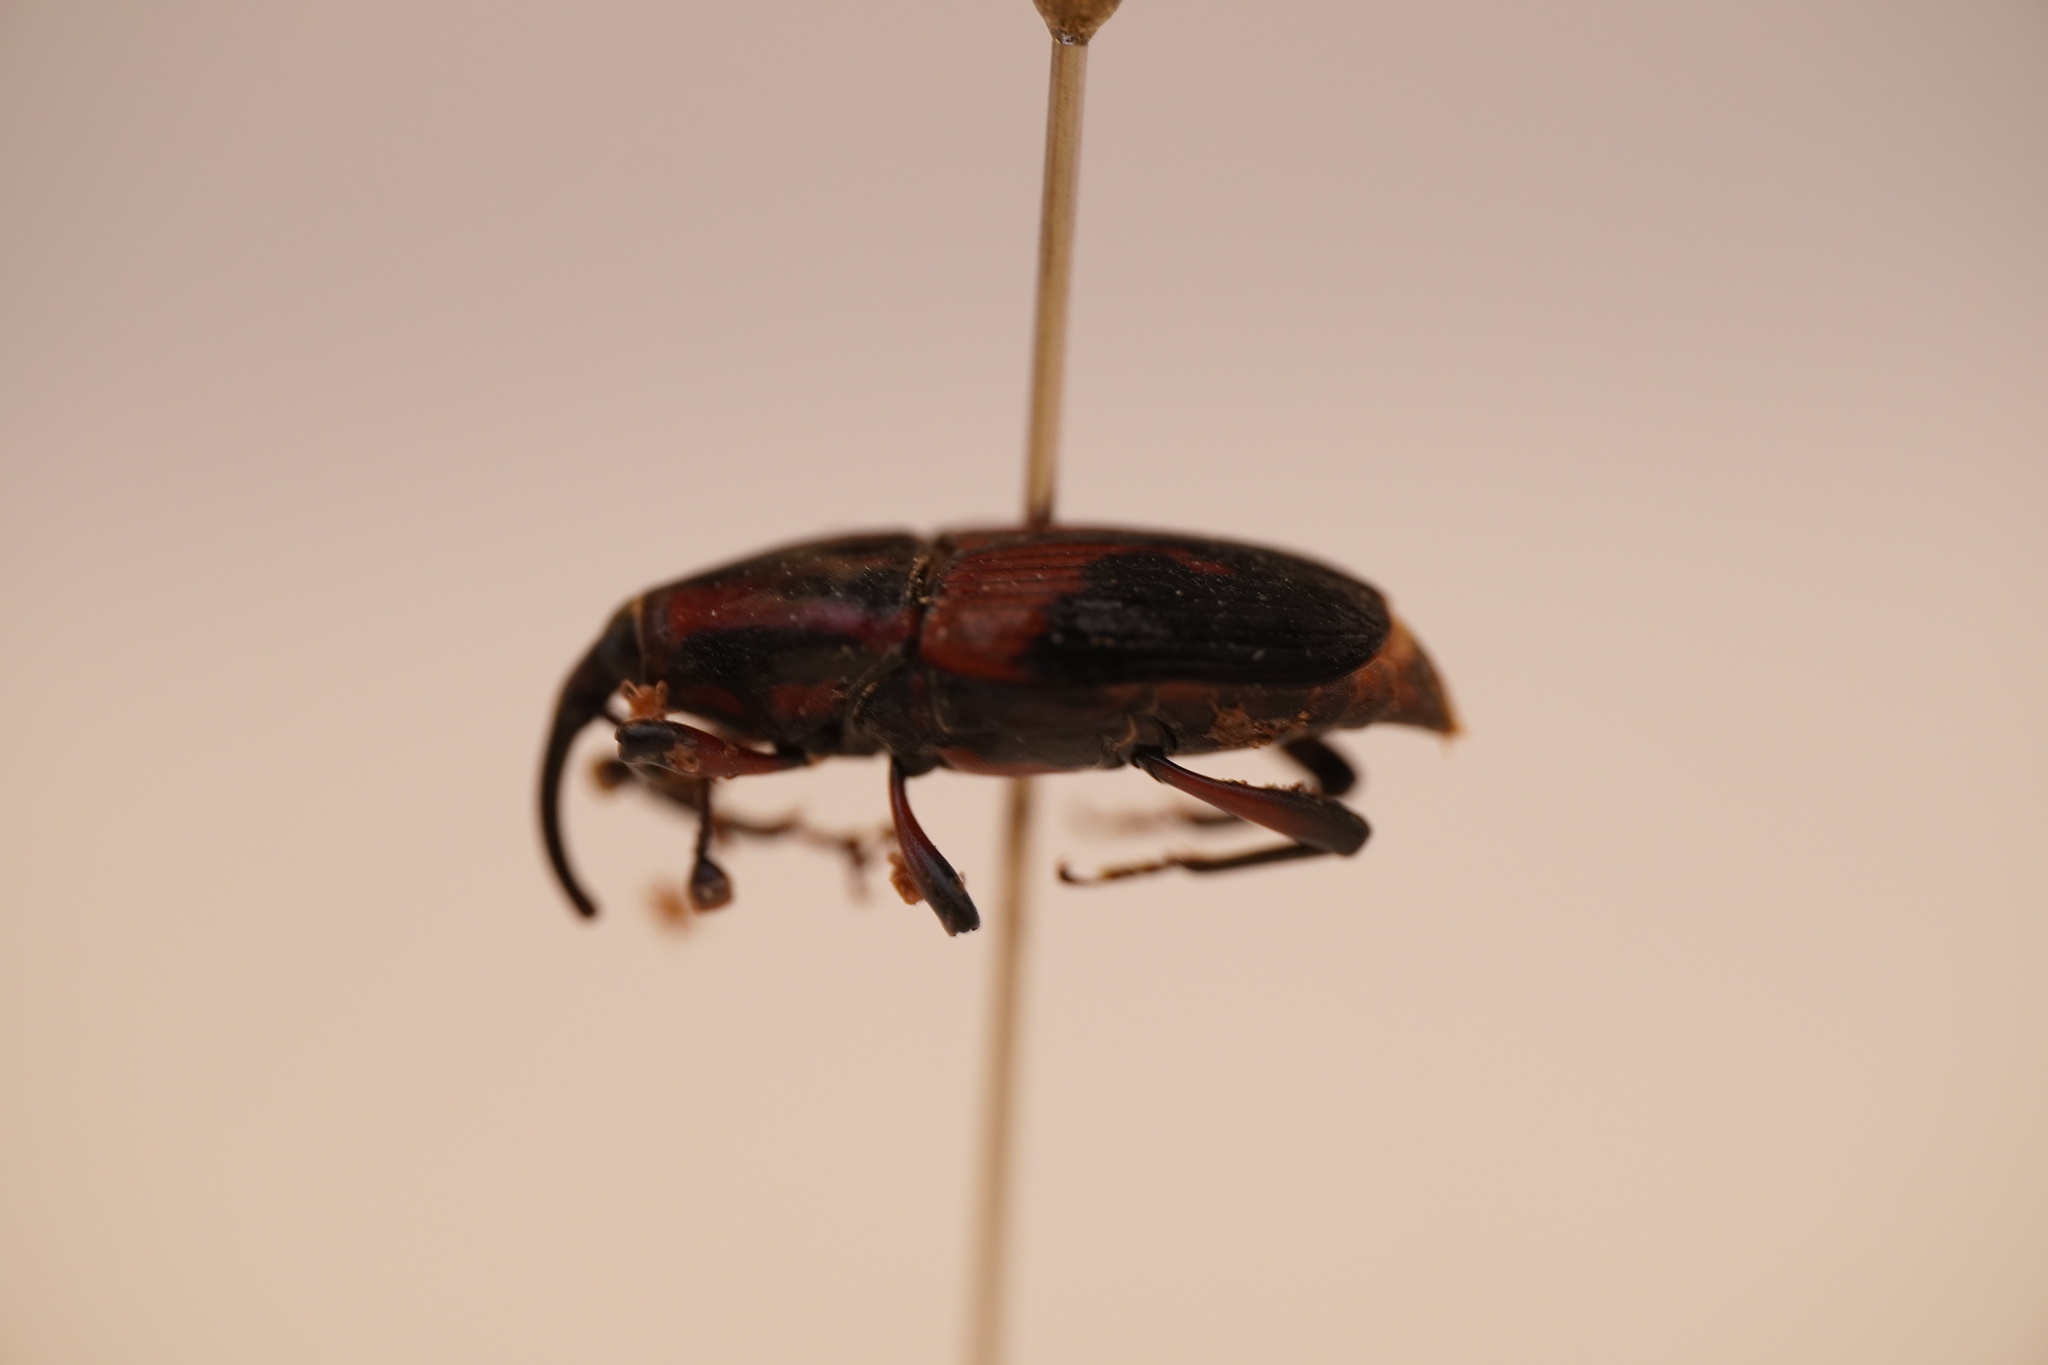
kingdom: Animalia
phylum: Arthropoda
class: Insecta
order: Coleoptera
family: Dryophthoridae
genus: Metamasius
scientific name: Metamasius sericeus
